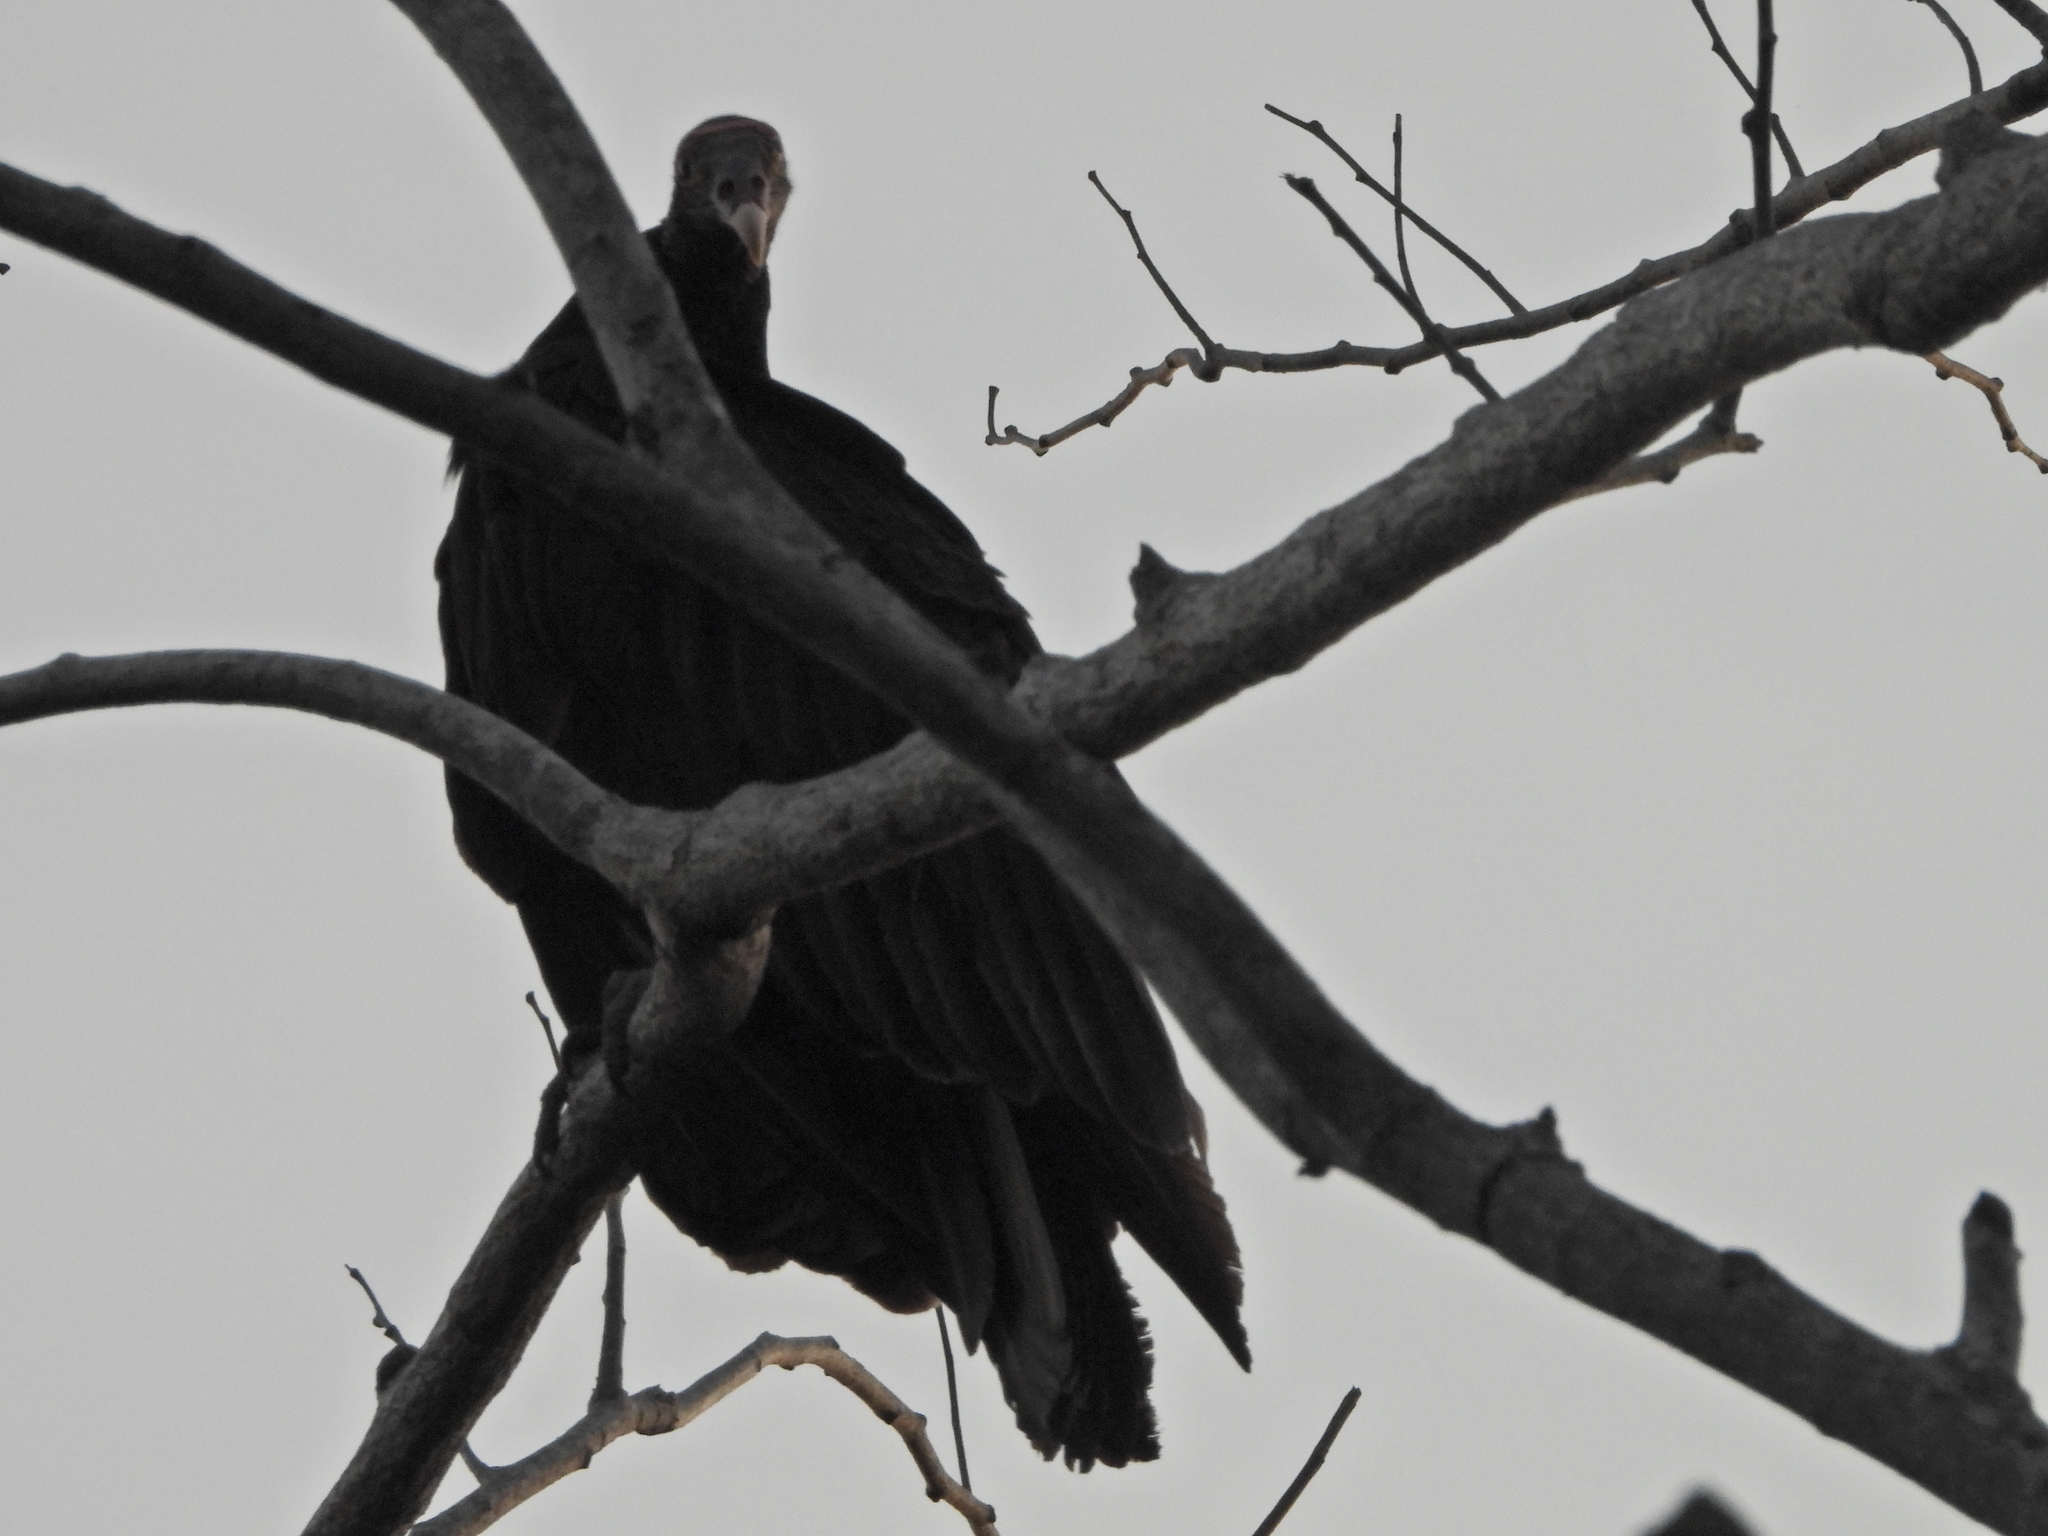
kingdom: Animalia
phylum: Chordata
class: Aves
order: Accipitriformes
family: Cathartidae
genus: Cathartes
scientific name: Cathartes aura
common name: Turkey vulture
